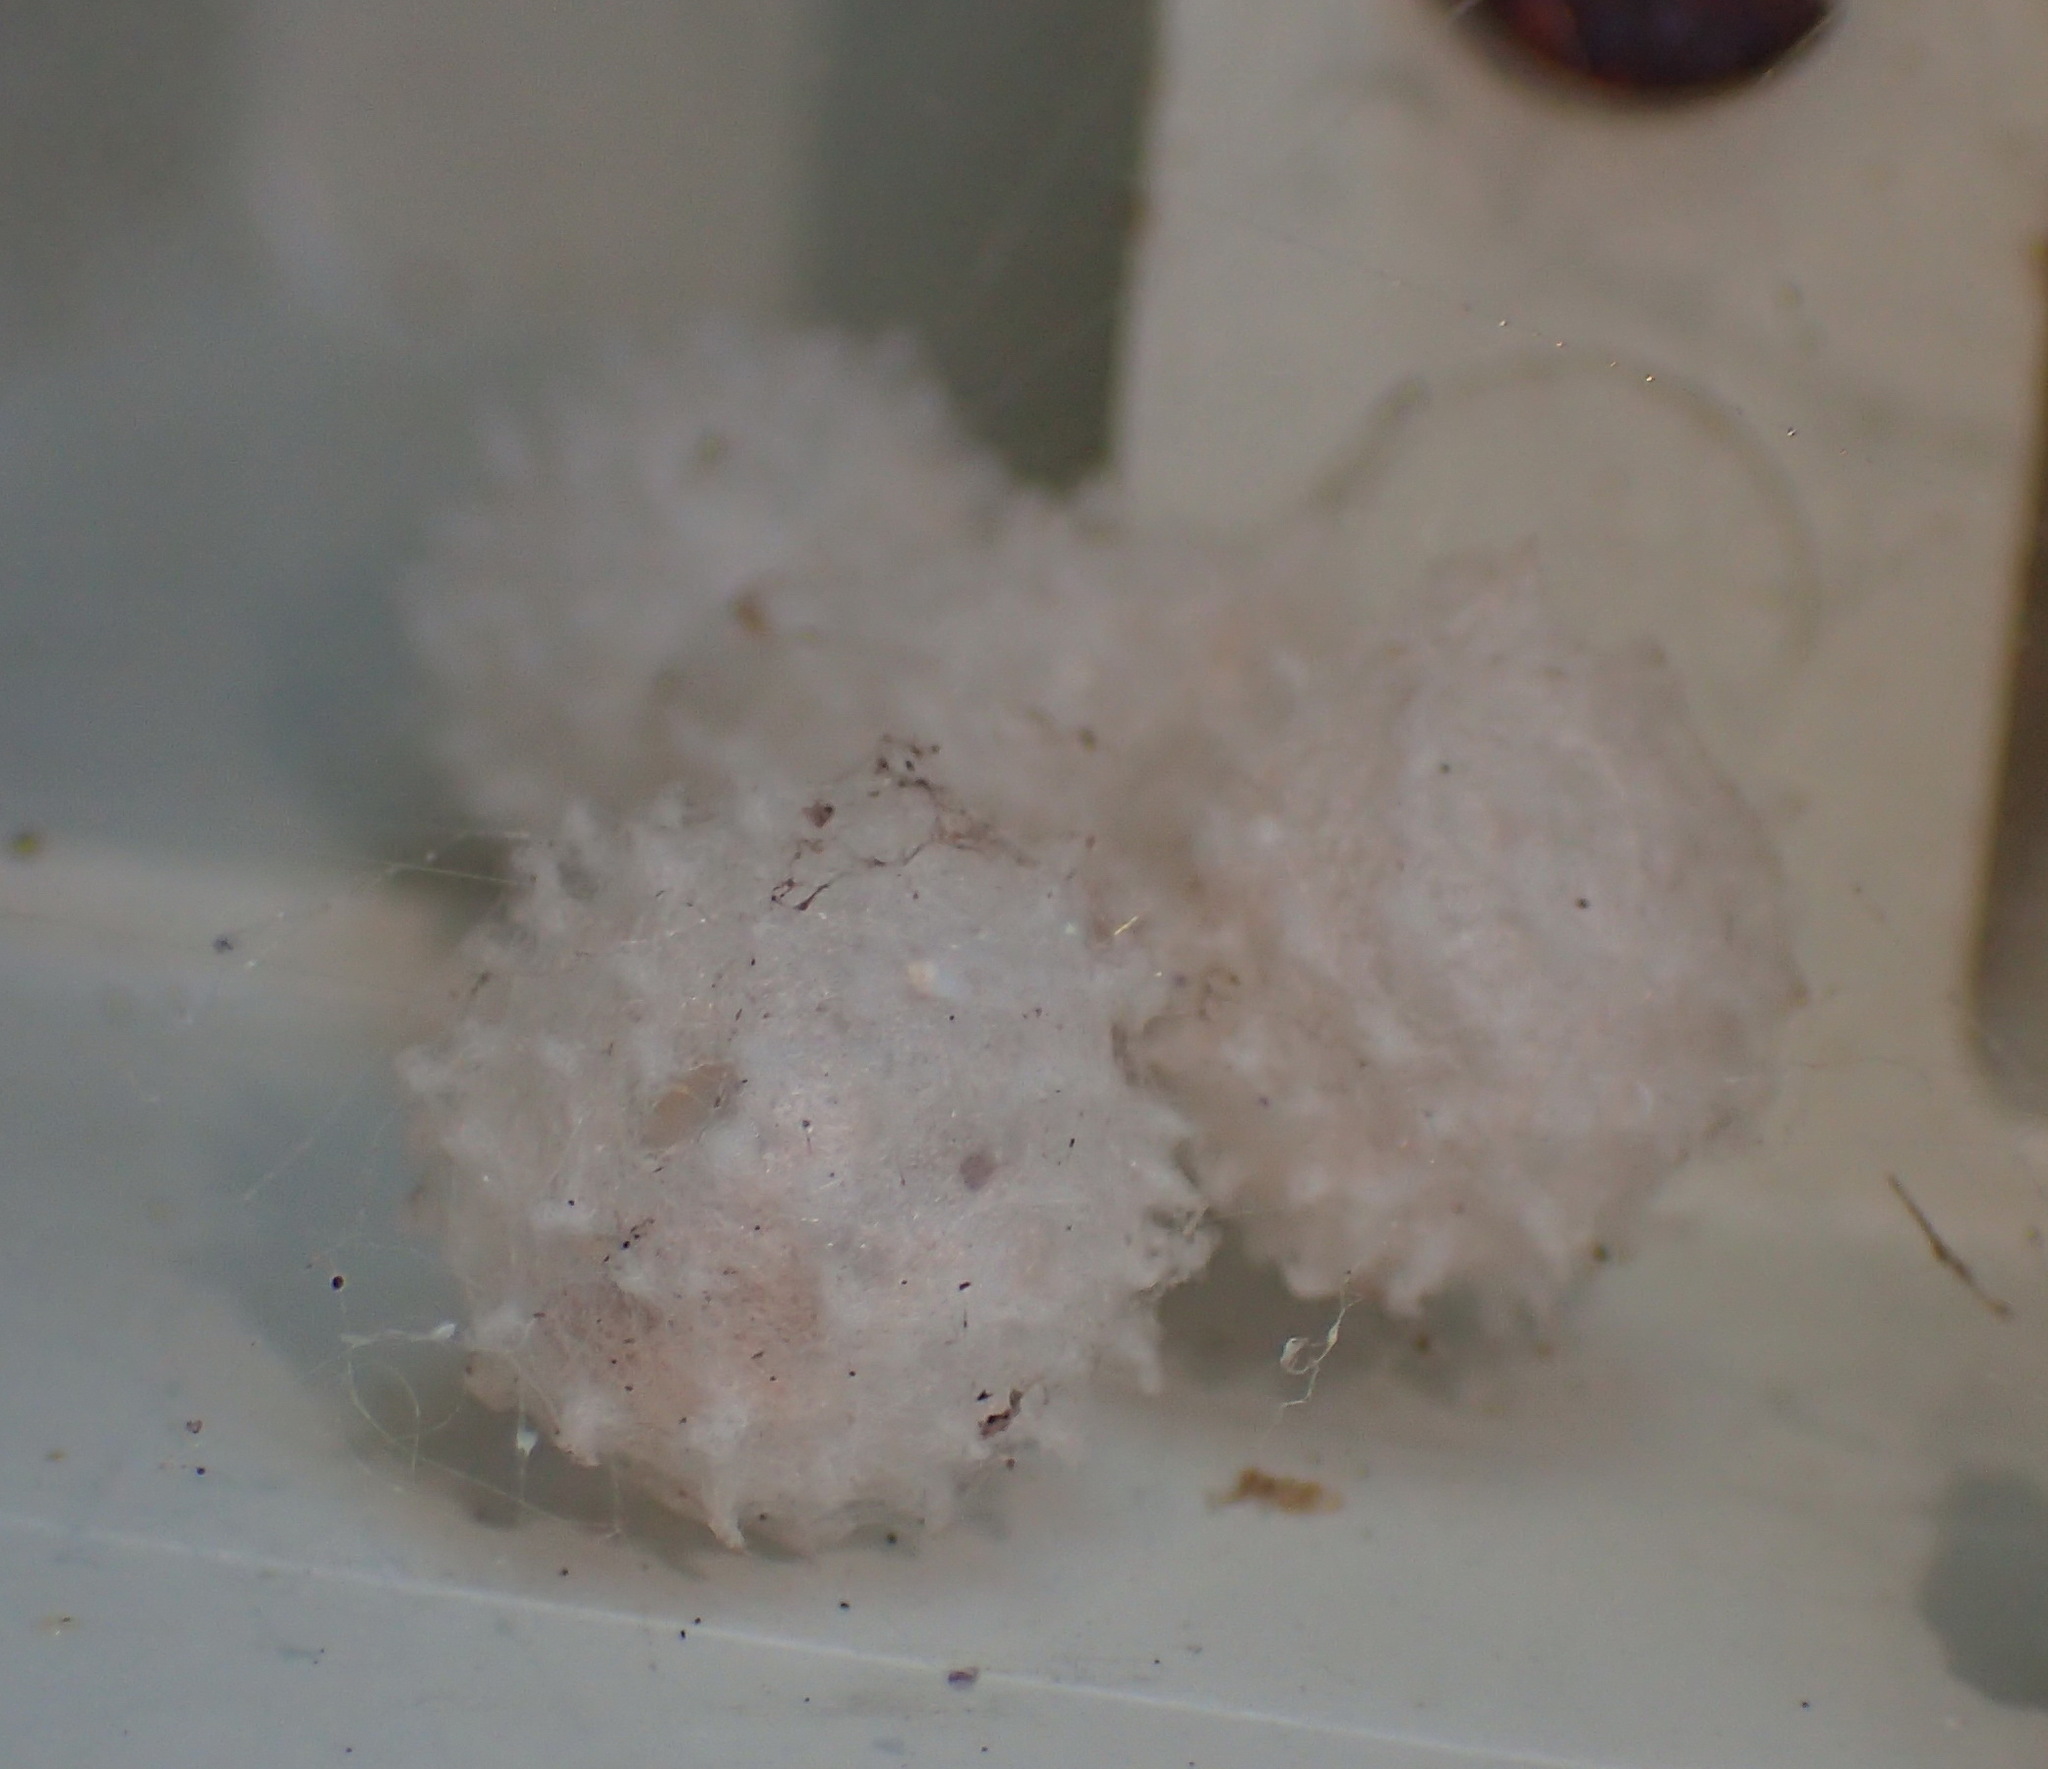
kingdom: Animalia
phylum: Arthropoda
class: Arachnida
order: Araneae
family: Theridiidae
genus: Latrodectus
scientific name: Latrodectus geometricus
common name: Brown widow spider
